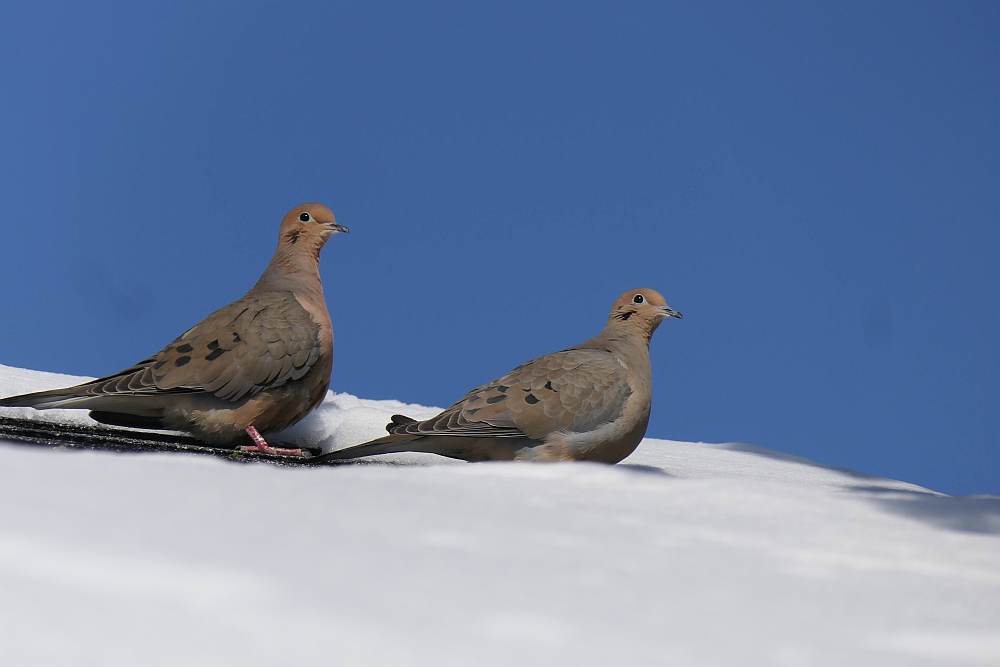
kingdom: Animalia
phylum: Chordata
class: Aves
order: Columbiformes
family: Columbidae
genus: Zenaida
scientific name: Zenaida macroura
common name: Mourning dove
